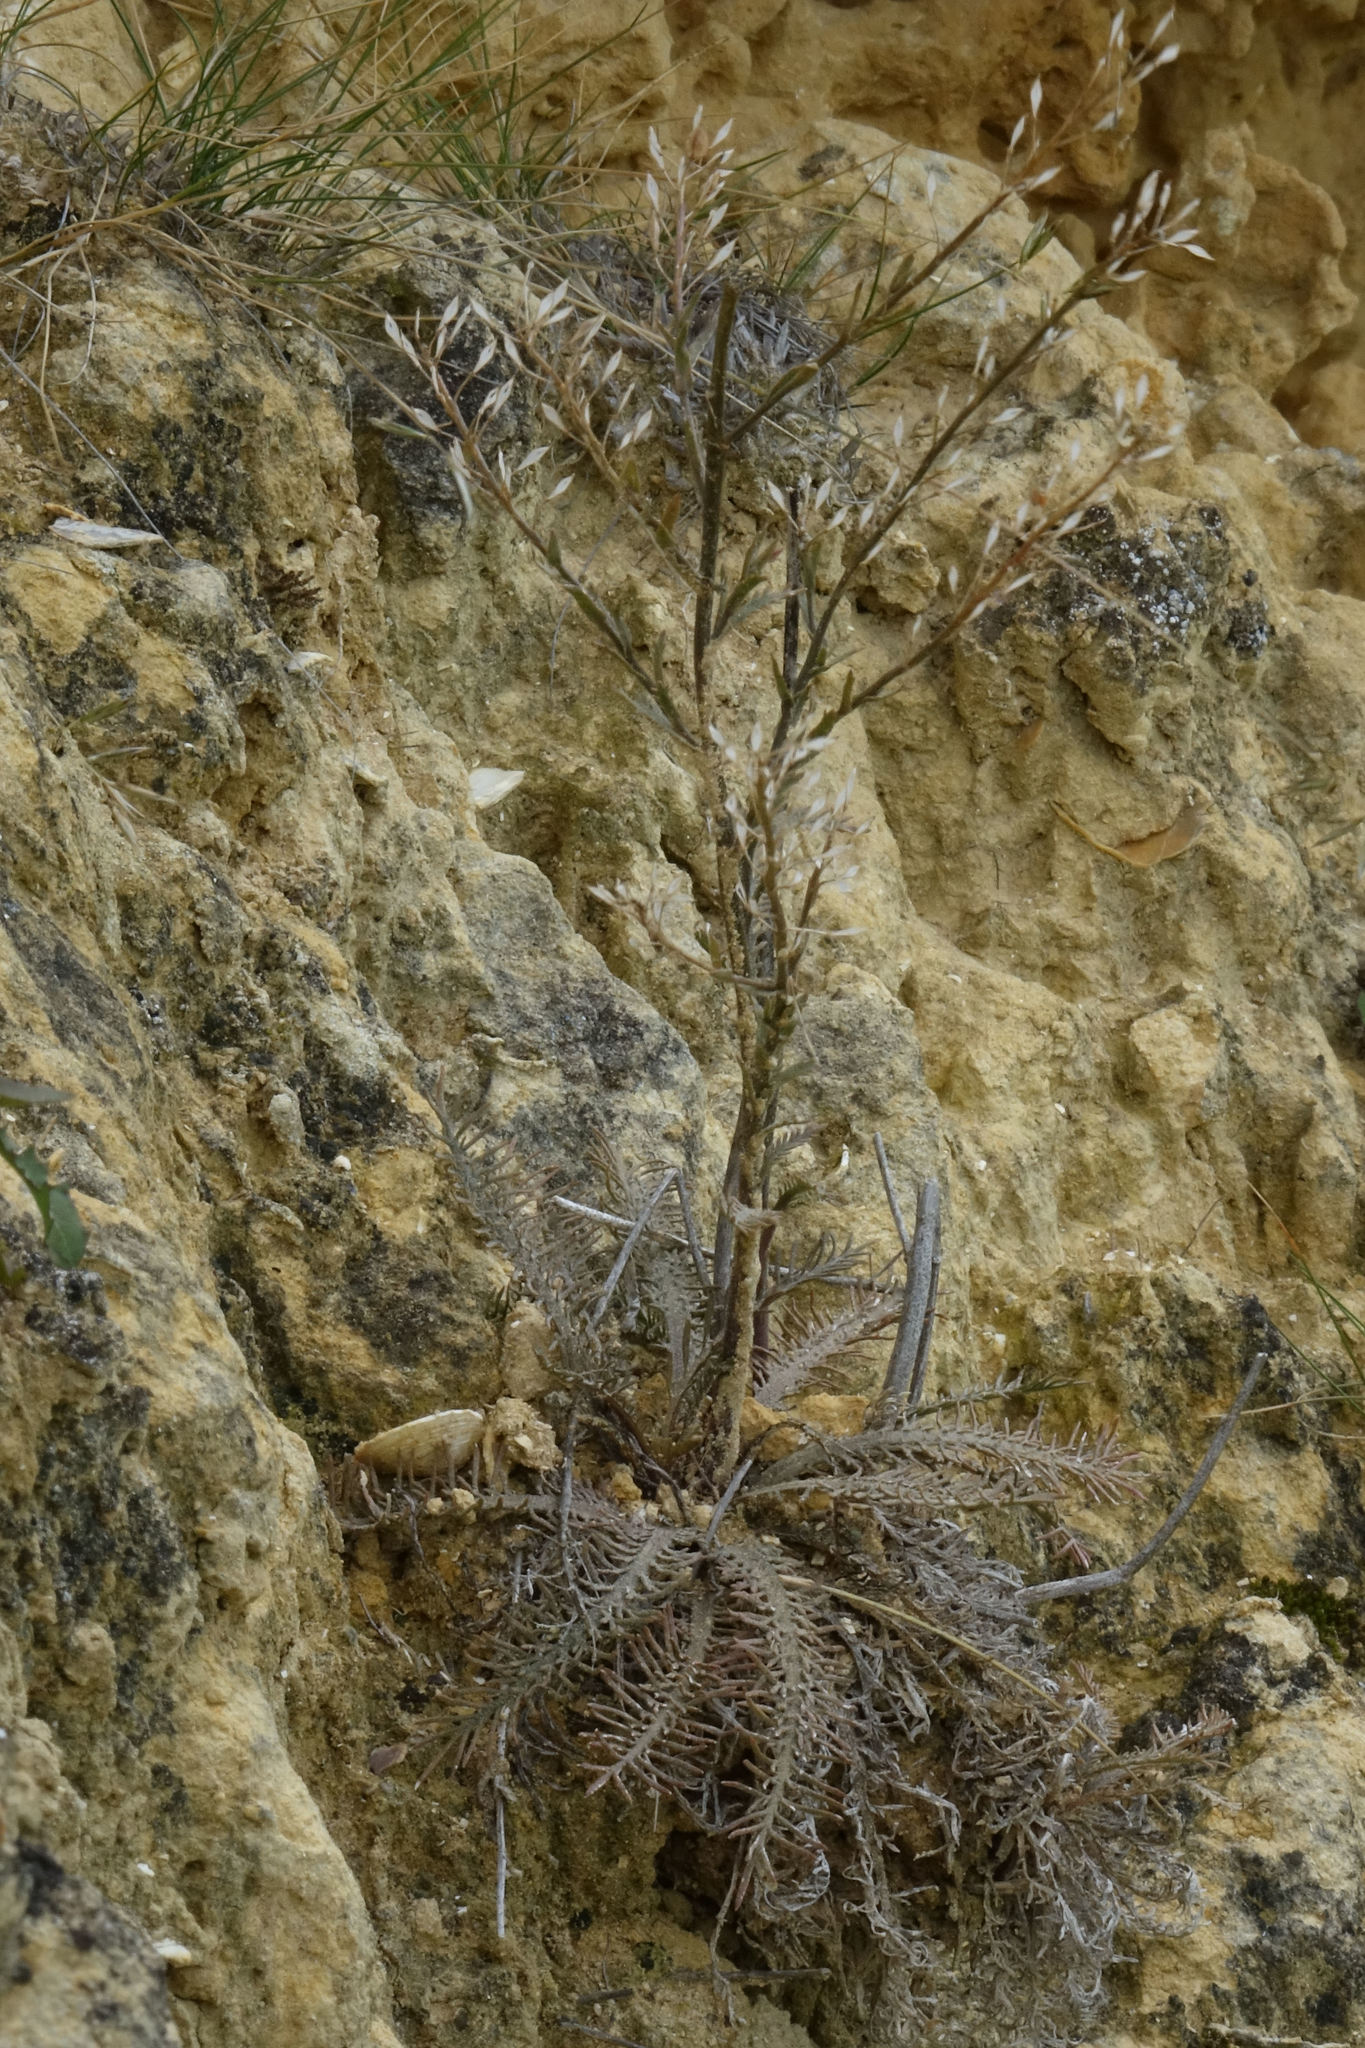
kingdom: Plantae
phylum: Tracheophyta
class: Magnoliopsida
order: Brassicales
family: Brassicaceae
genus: Lepidium
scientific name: Lepidium sisymbrioides
